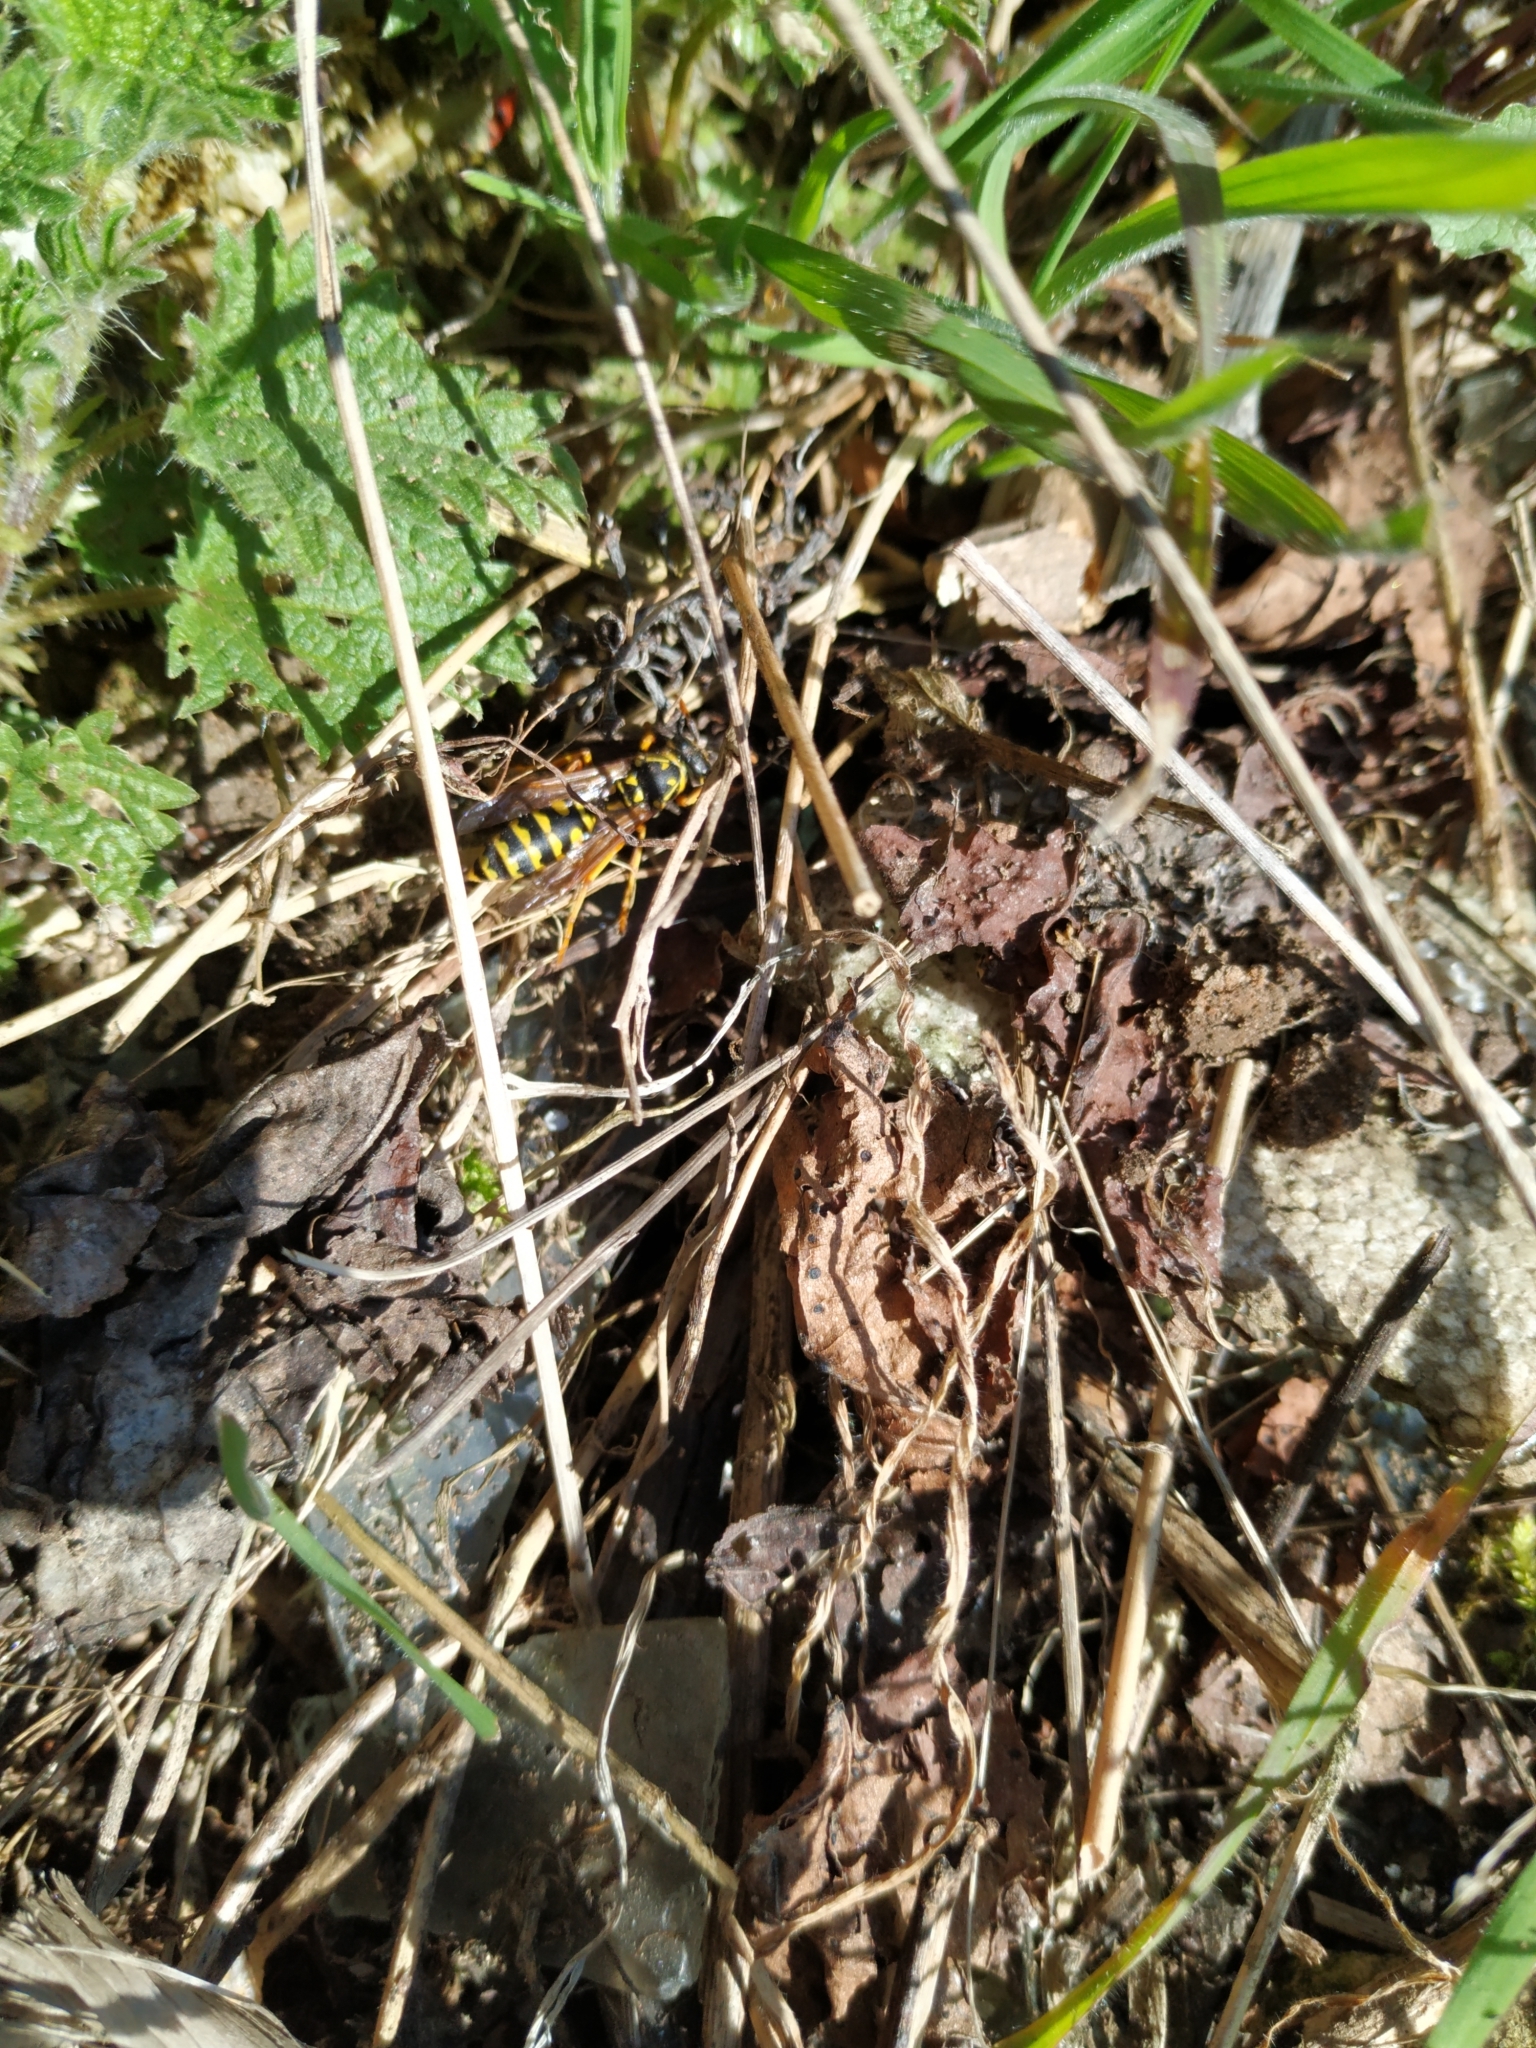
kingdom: Animalia
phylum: Arthropoda
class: Insecta
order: Hymenoptera
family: Eumenidae
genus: Polistes
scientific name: Polistes dominula
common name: Paper wasp
